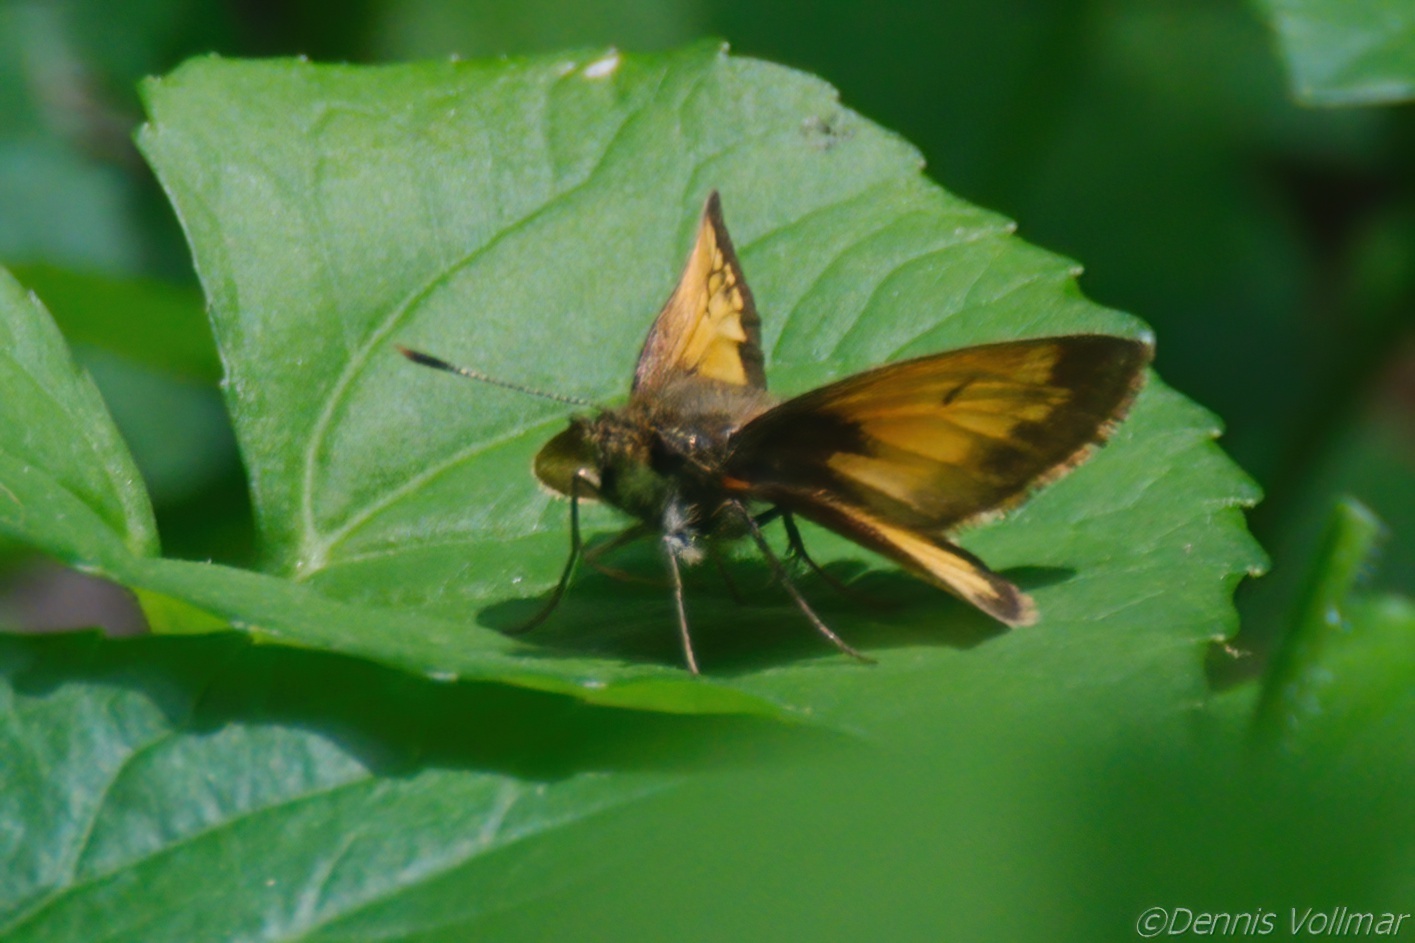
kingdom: Animalia
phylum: Arthropoda
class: Insecta
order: Lepidoptera
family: Hesperiidae
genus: Lon
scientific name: Lon hobomok
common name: Hobomok skipper
